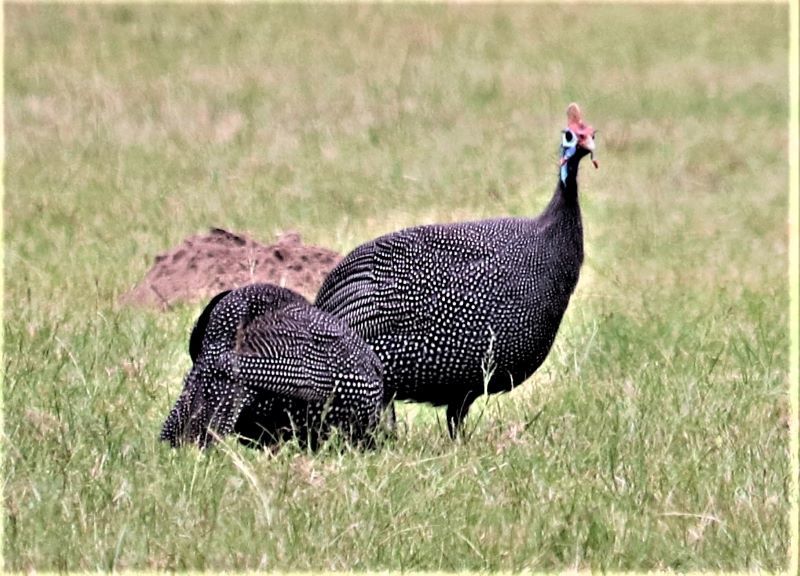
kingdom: Animalia
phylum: Chordata
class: Aves
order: Galliformes
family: Numididae
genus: Numida
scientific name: Numida meleagris
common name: Helmeted guineafowl
